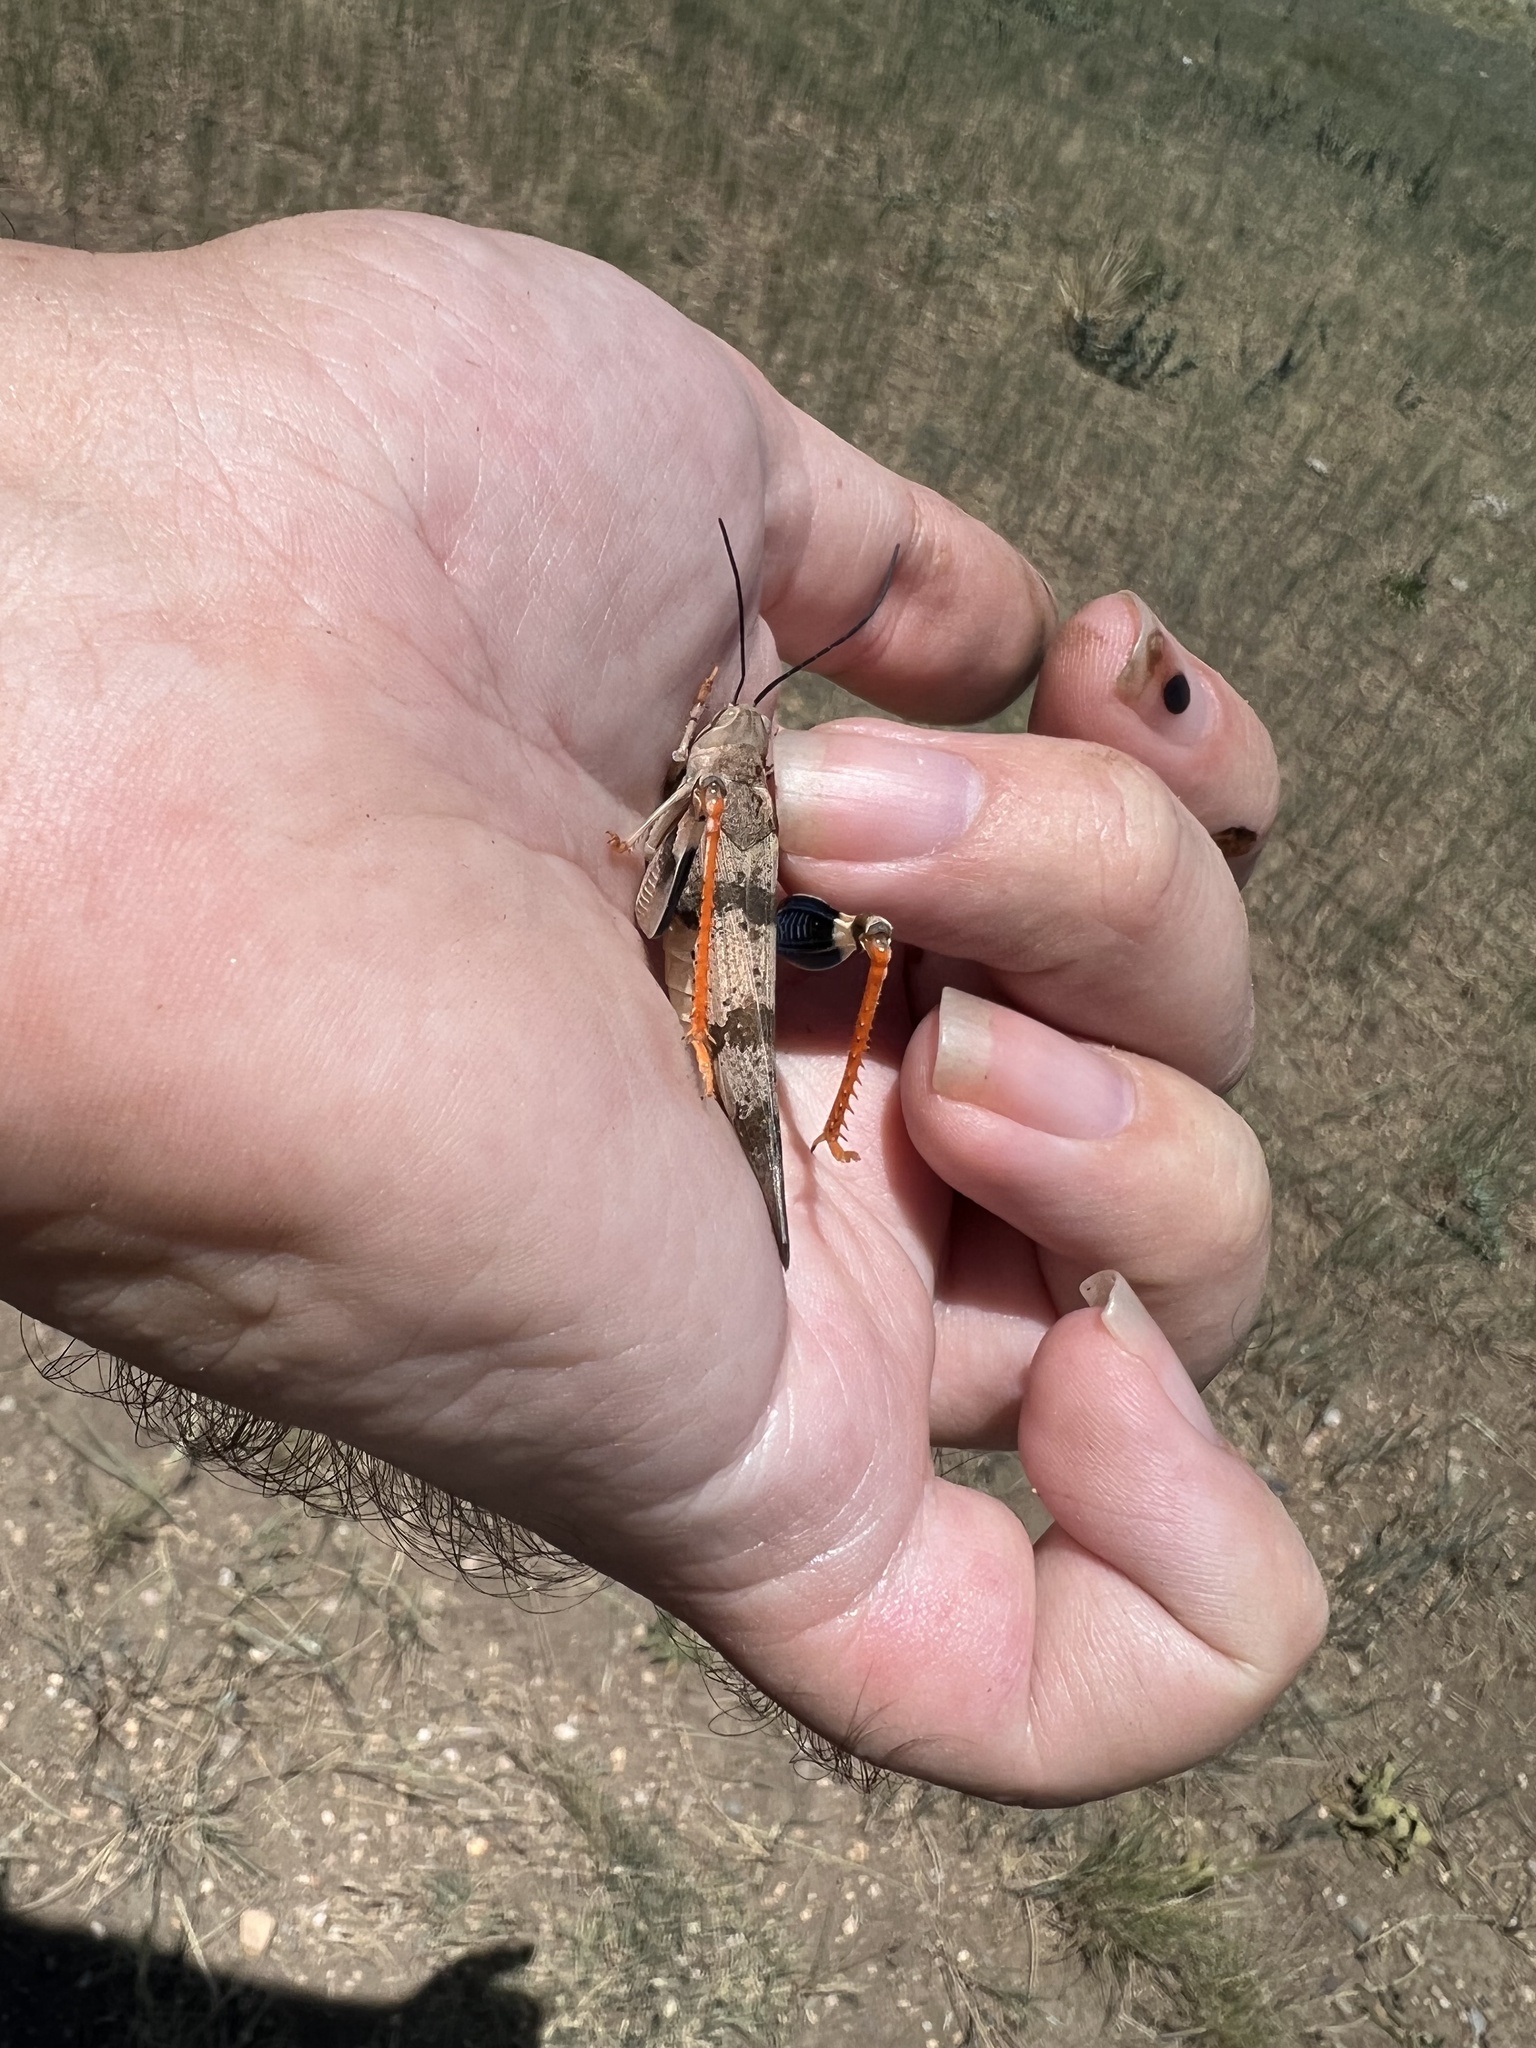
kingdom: Animalia
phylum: Arthropoda
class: Insecta
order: Orthoptera
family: Acrididae
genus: Hadrotettix
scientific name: Hadrotettix trifasciatus
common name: Threebanded grasshopper
